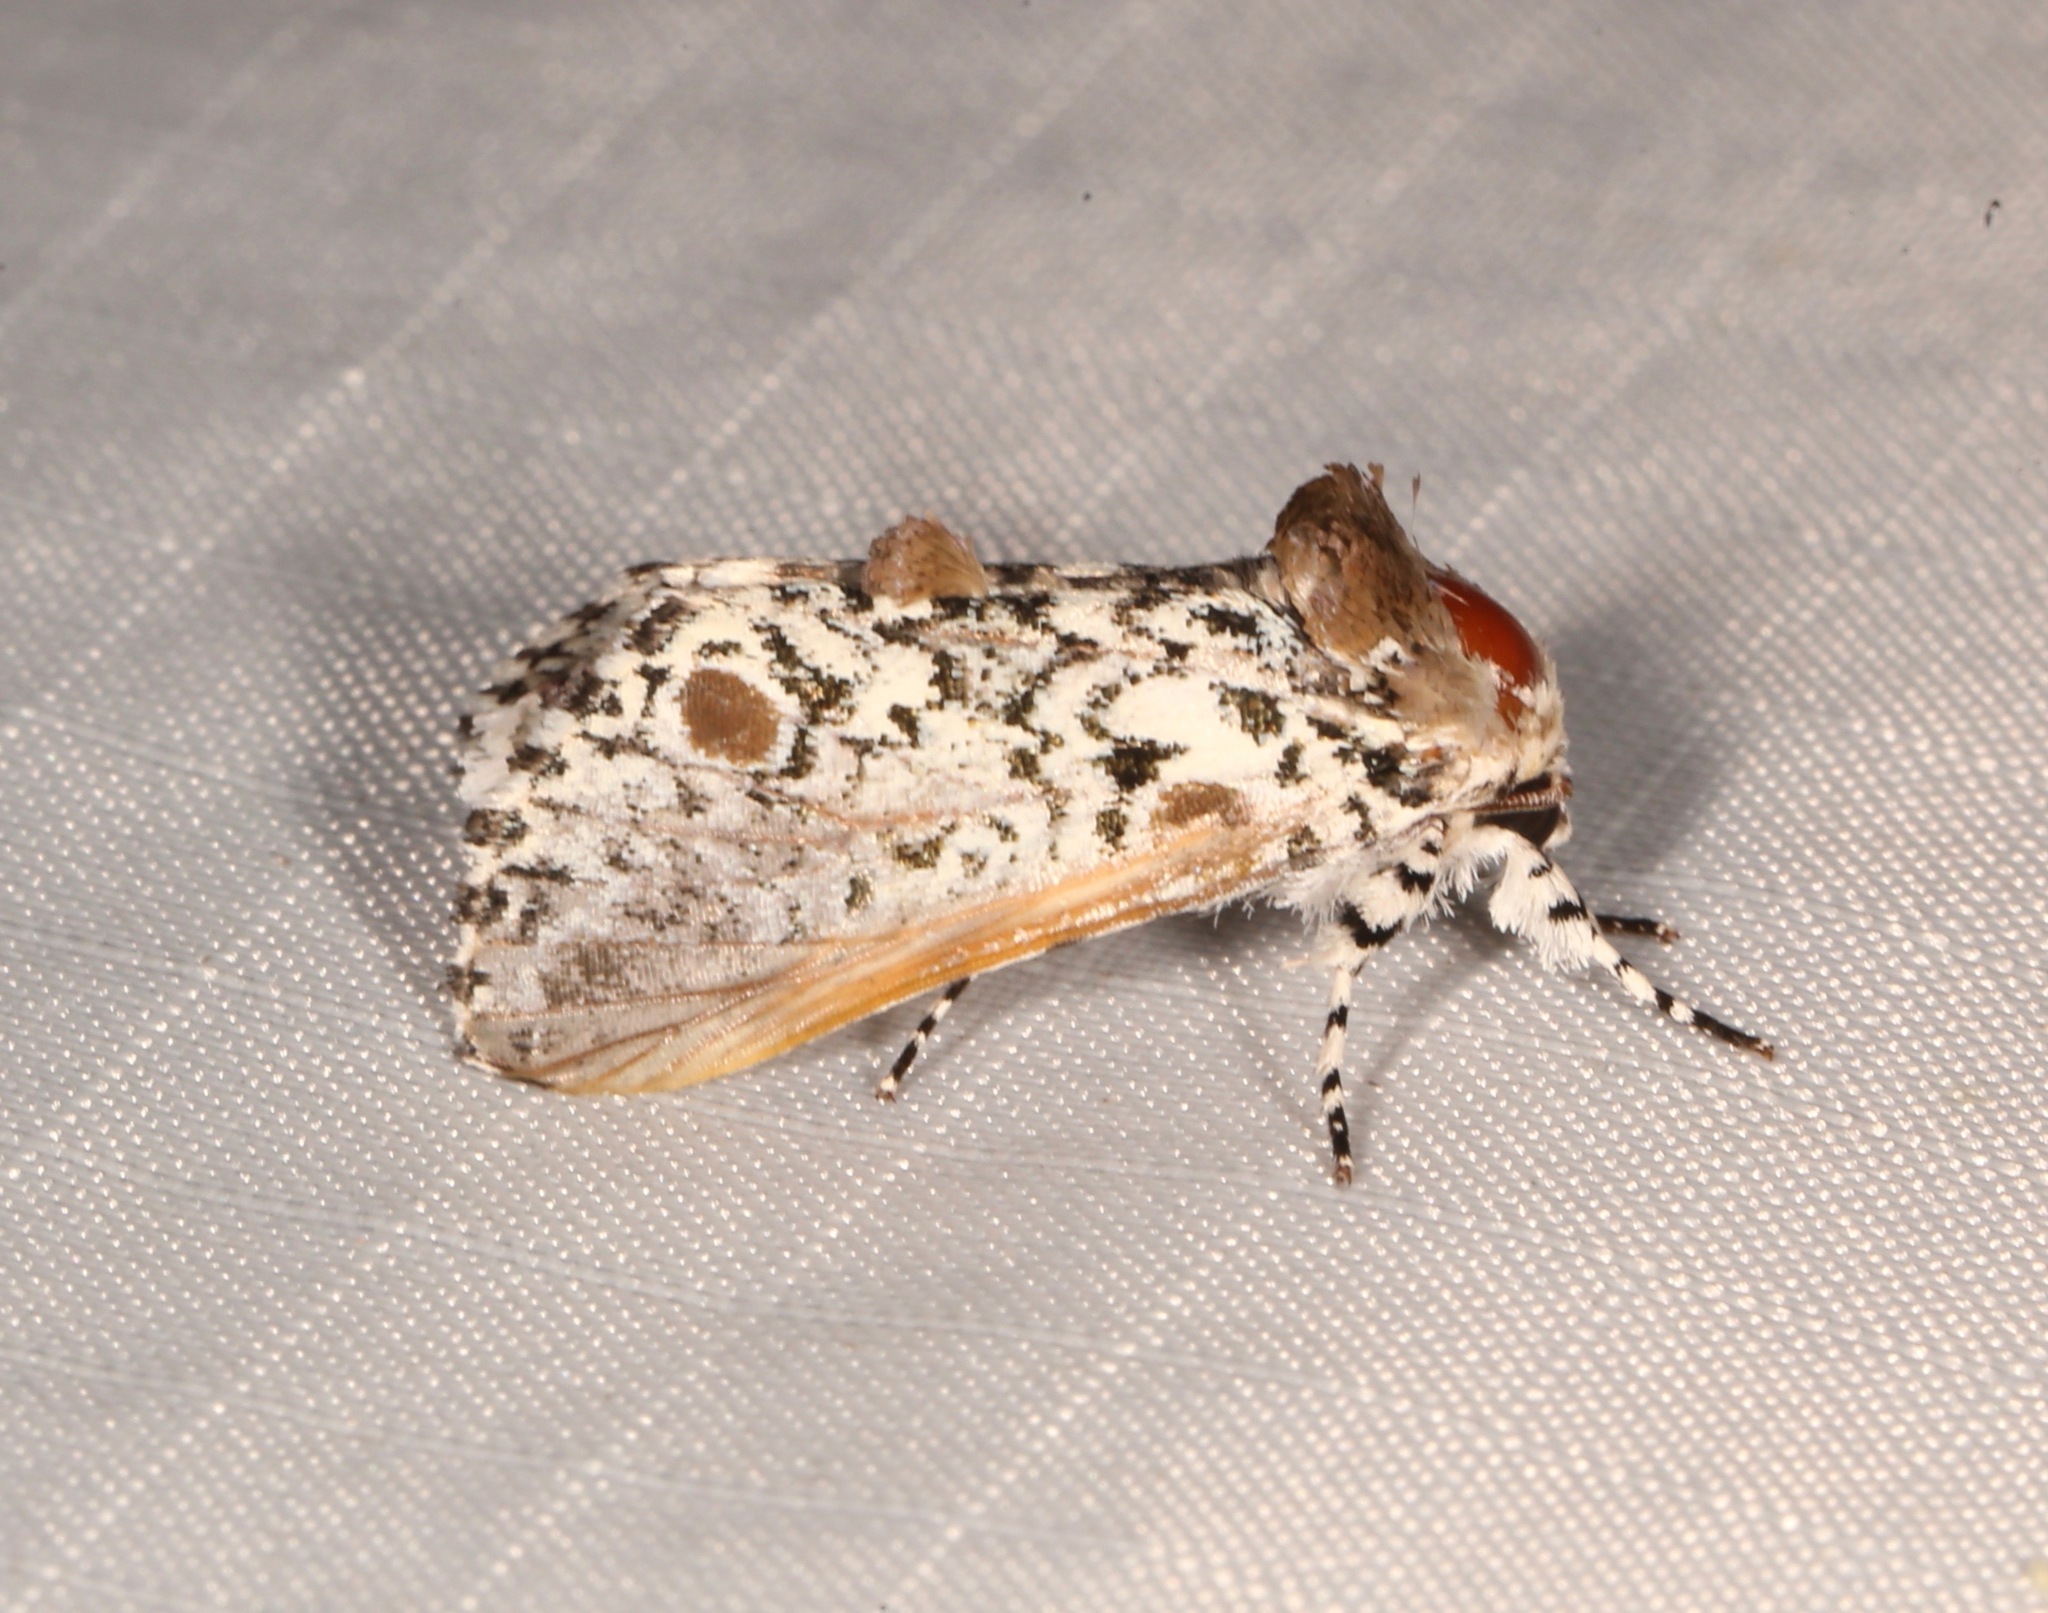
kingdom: Animalia
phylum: Arthropoda
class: Insecta
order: Lepidoptera
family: Noctuidae
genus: Harrisimemna
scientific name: Harrisimemna trisignata
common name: Harris threespot
